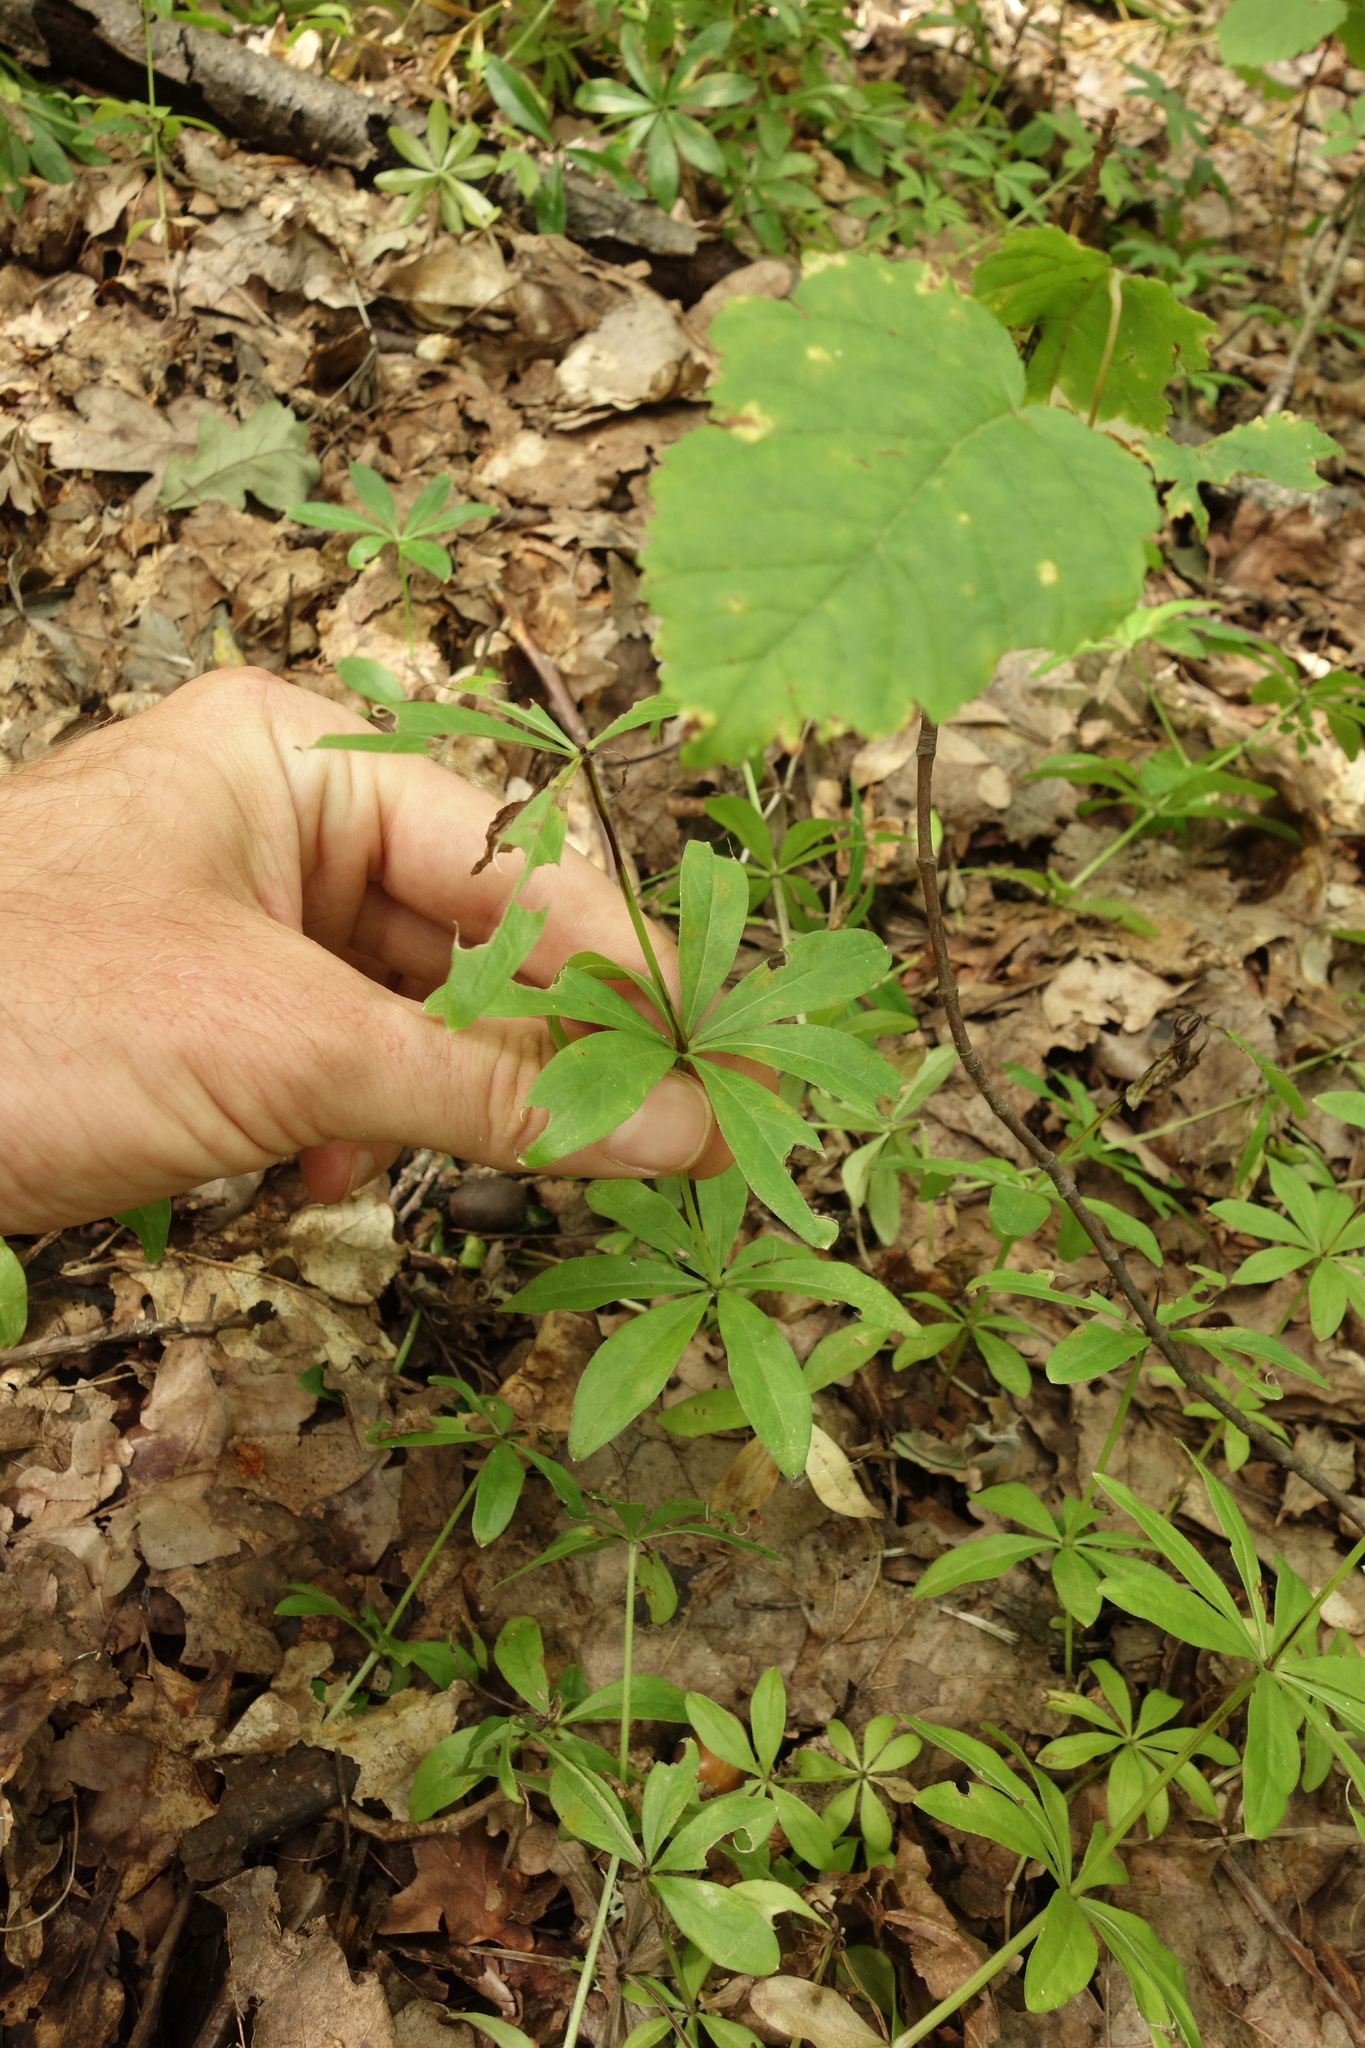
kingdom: Plantae
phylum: Tracheophyta
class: Magnoliopsida
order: Gentianales
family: Rubiaceae
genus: Galium
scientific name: Galium odoratum
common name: Sweet woodruff
